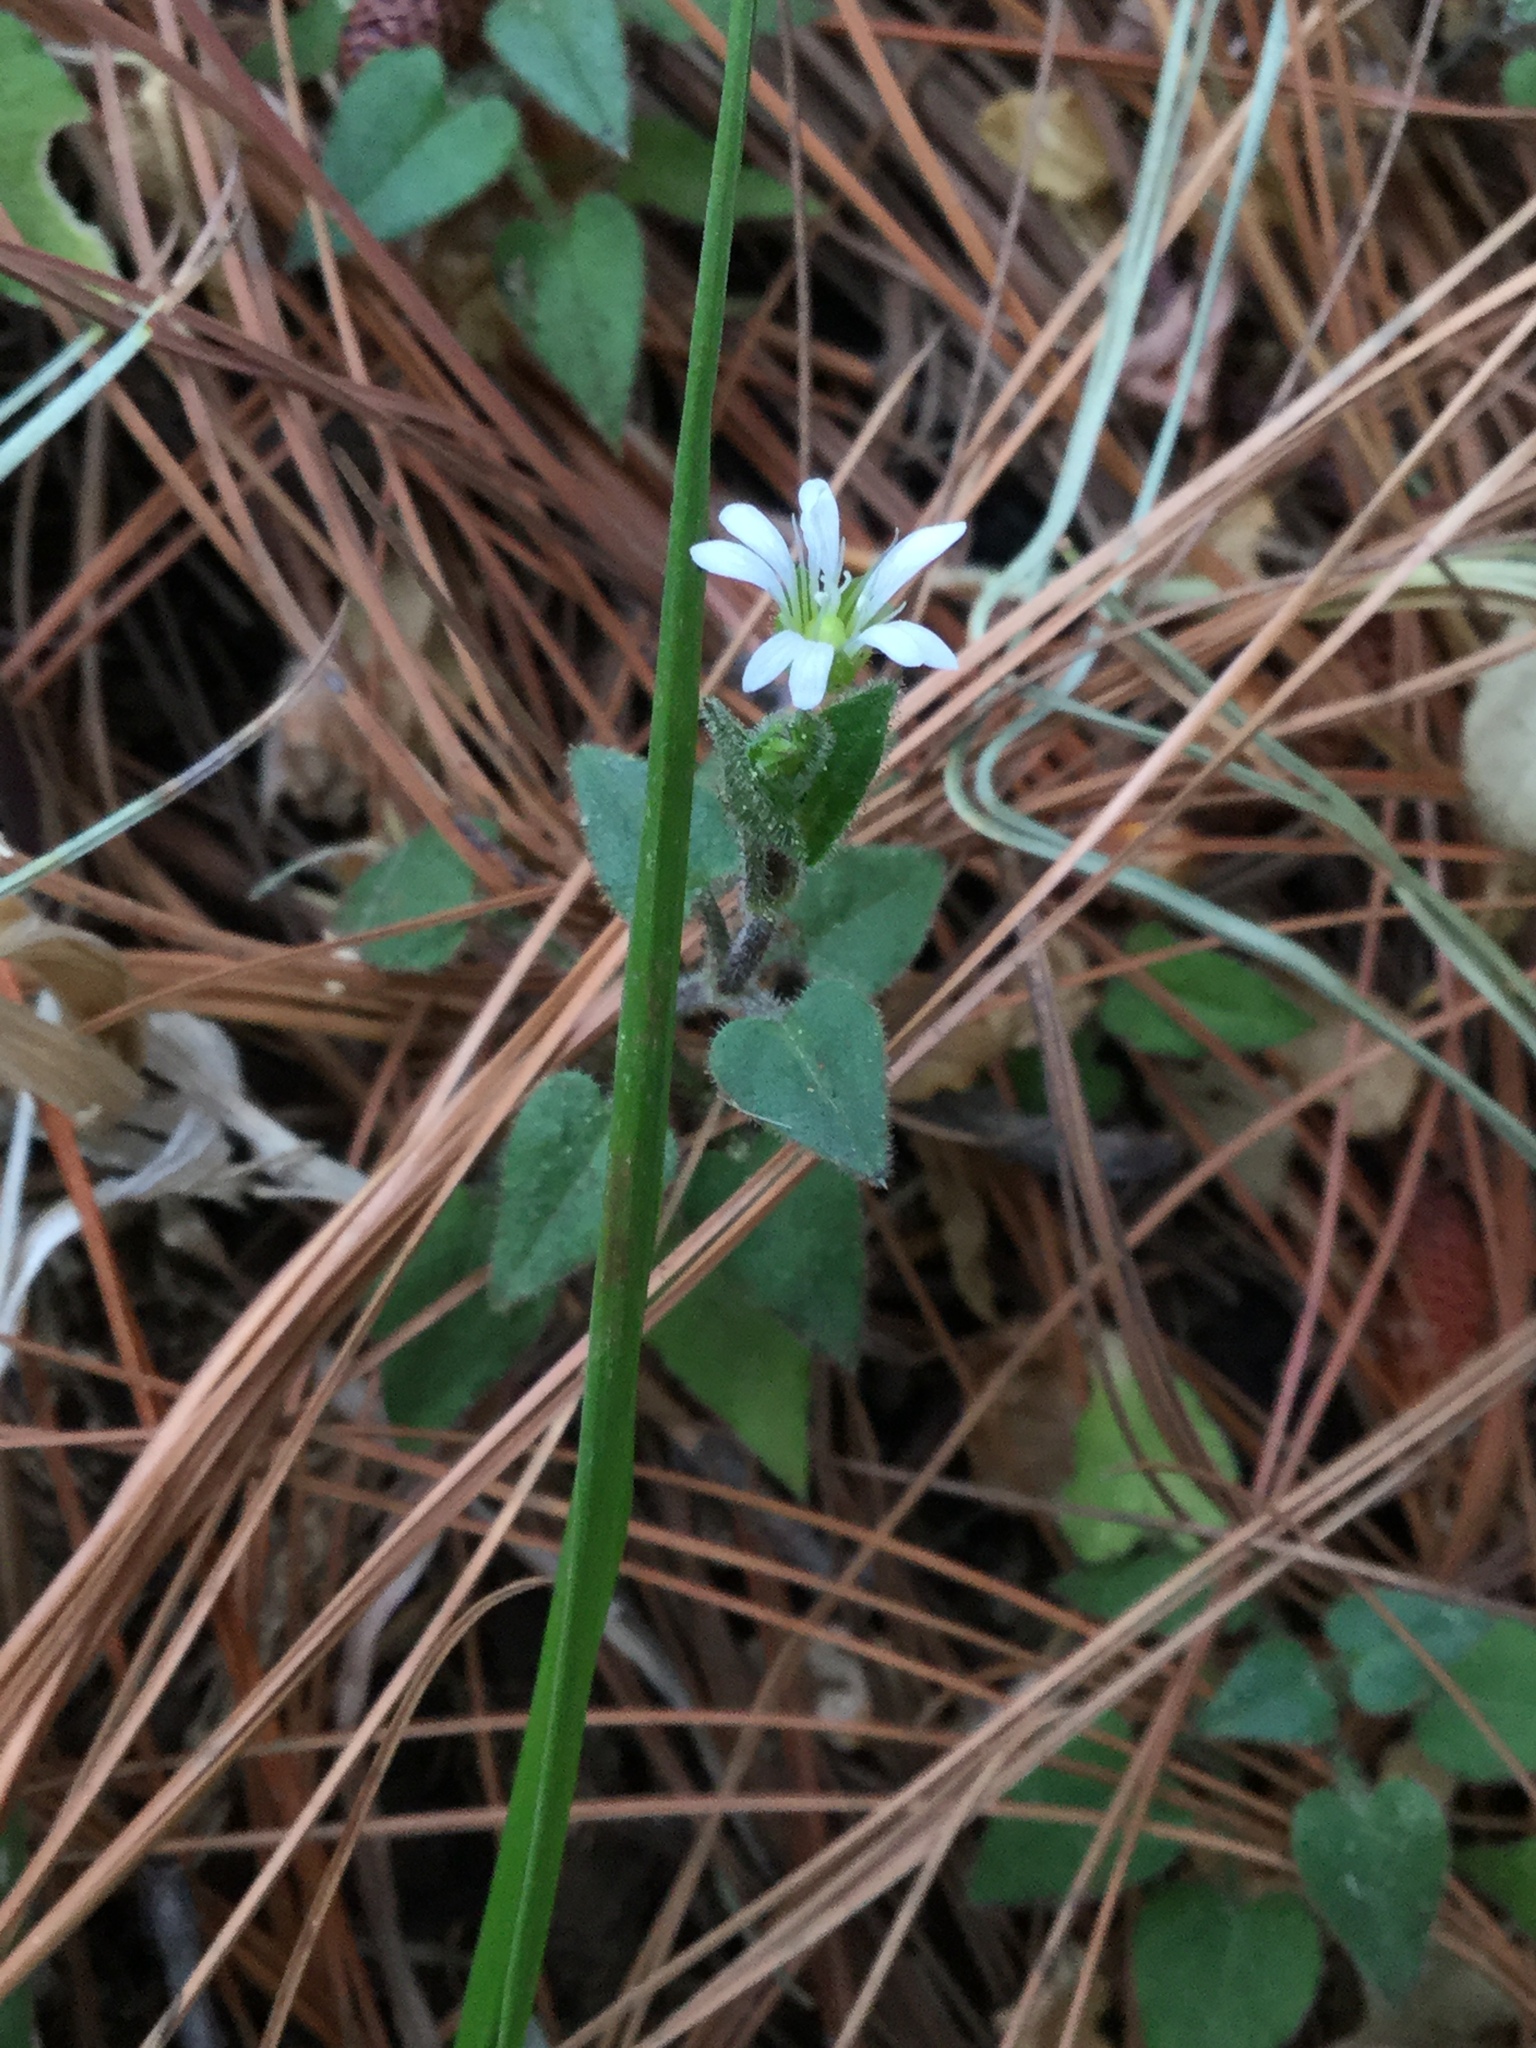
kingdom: Plantae
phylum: Tracheophyta
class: Magnoliopsida
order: Caryophyllales
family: Caryophyllaceae
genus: Stellaria
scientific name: Stellaria cuspidata
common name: Mexican chickweed
